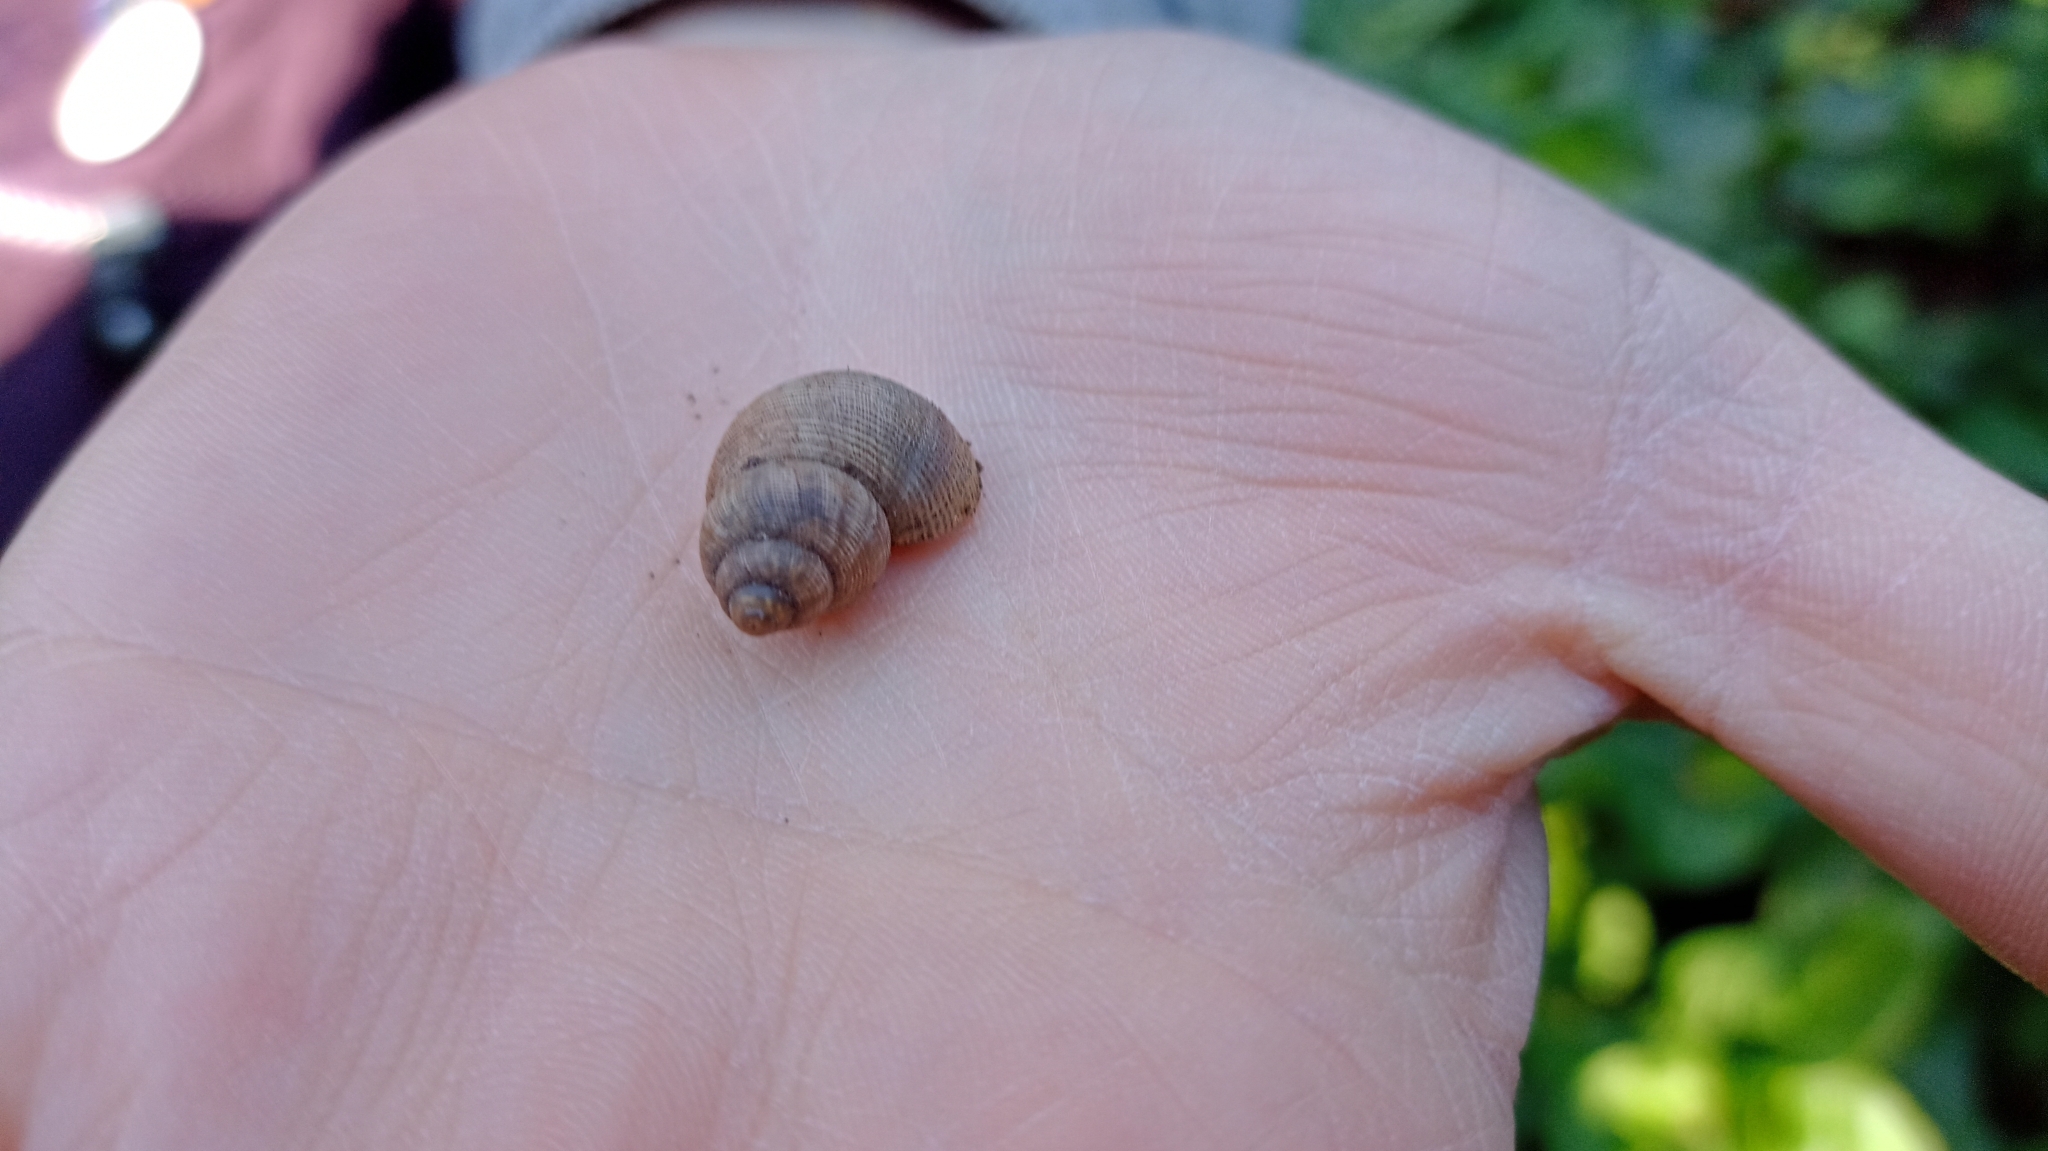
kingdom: Animalia
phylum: Mollusca
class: Gastropoda
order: Littorinimorpha
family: Pomatiidae
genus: Pomatias
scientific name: Pomatias elegans
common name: Red-mouthed snail
